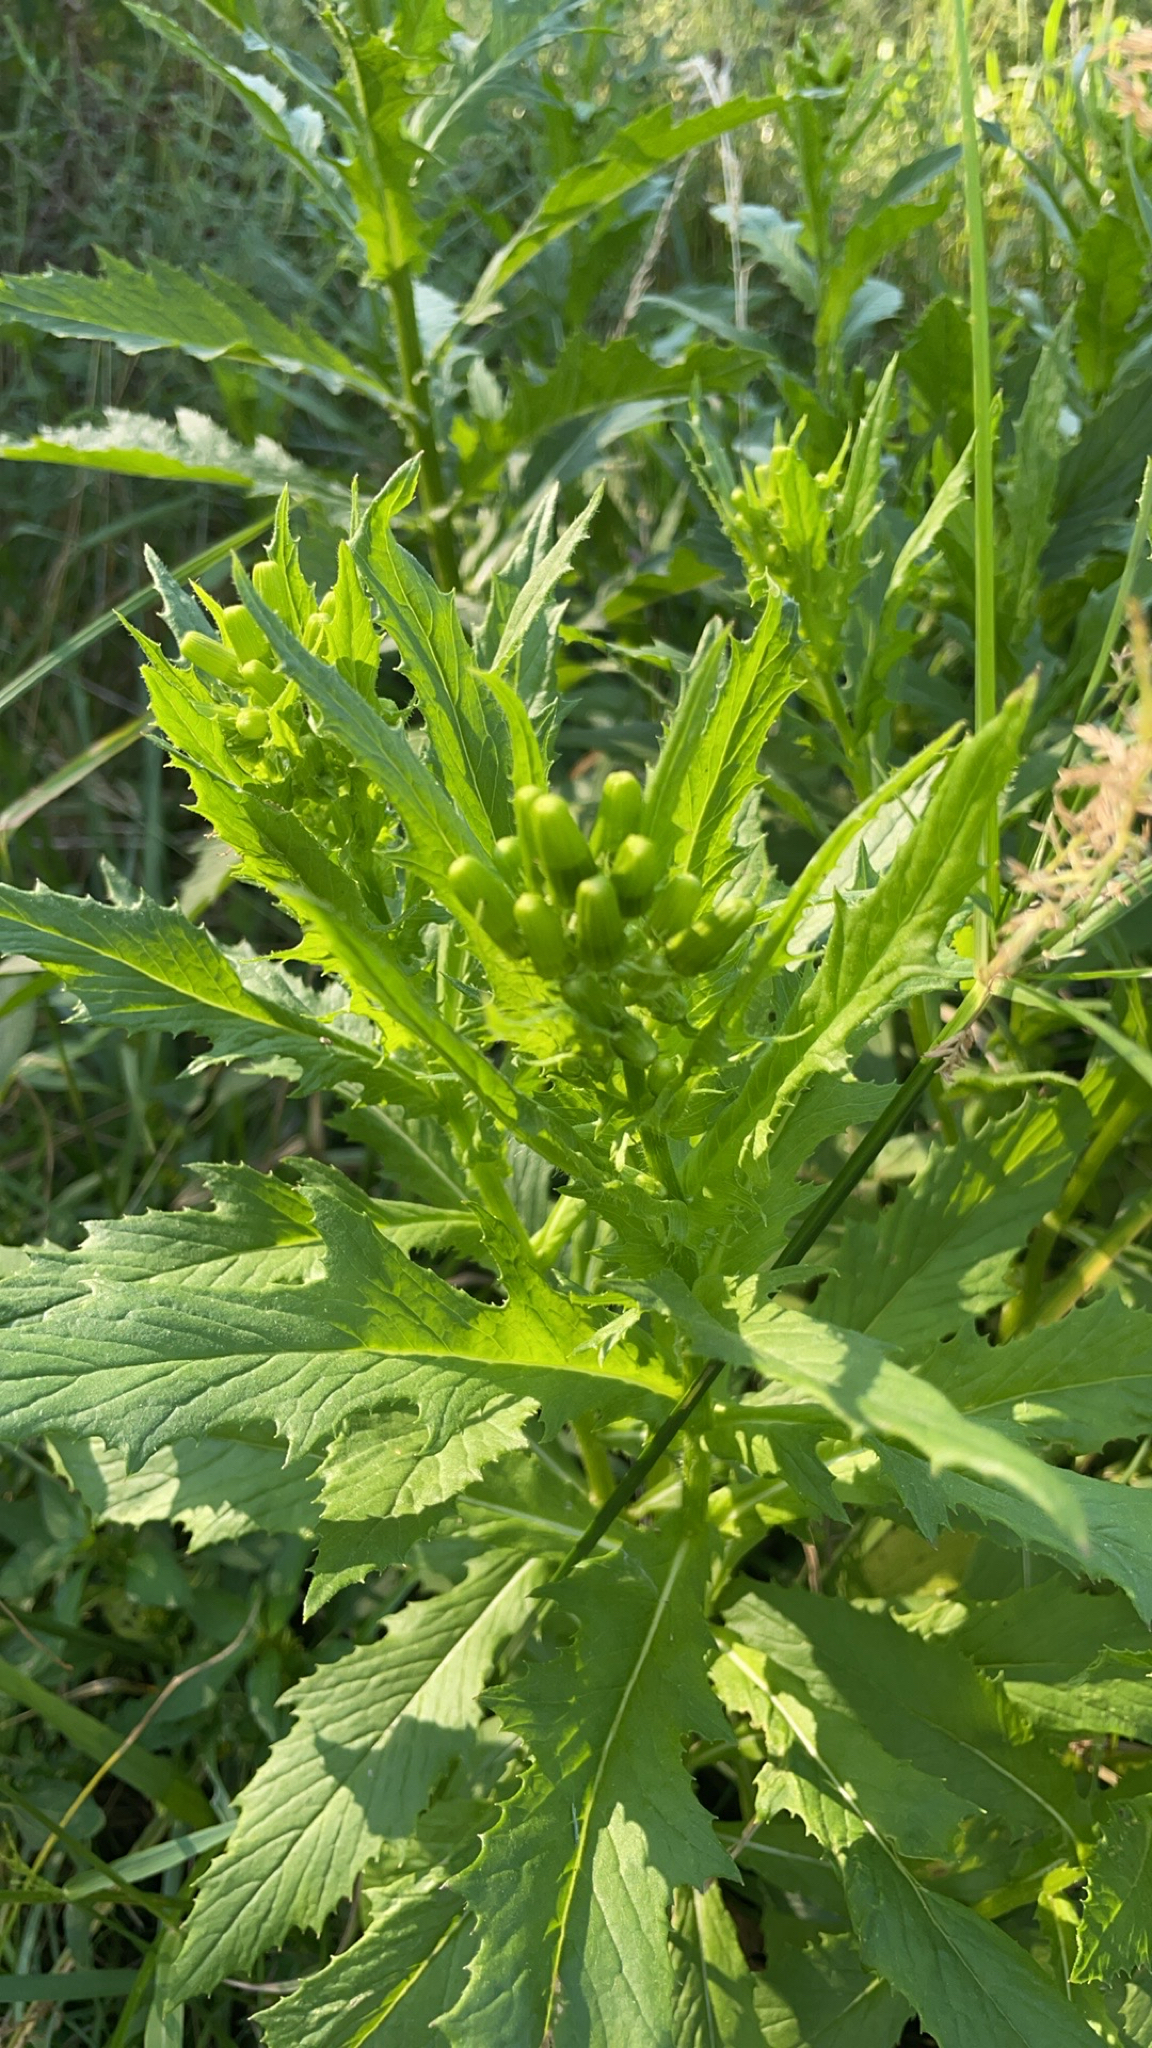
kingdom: Plantae
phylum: Tracheophyta
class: Magnoliopsida
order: Asterales
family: Asteraceae
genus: Erechtites
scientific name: Erechtites hieraciifolius
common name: American burnweed
